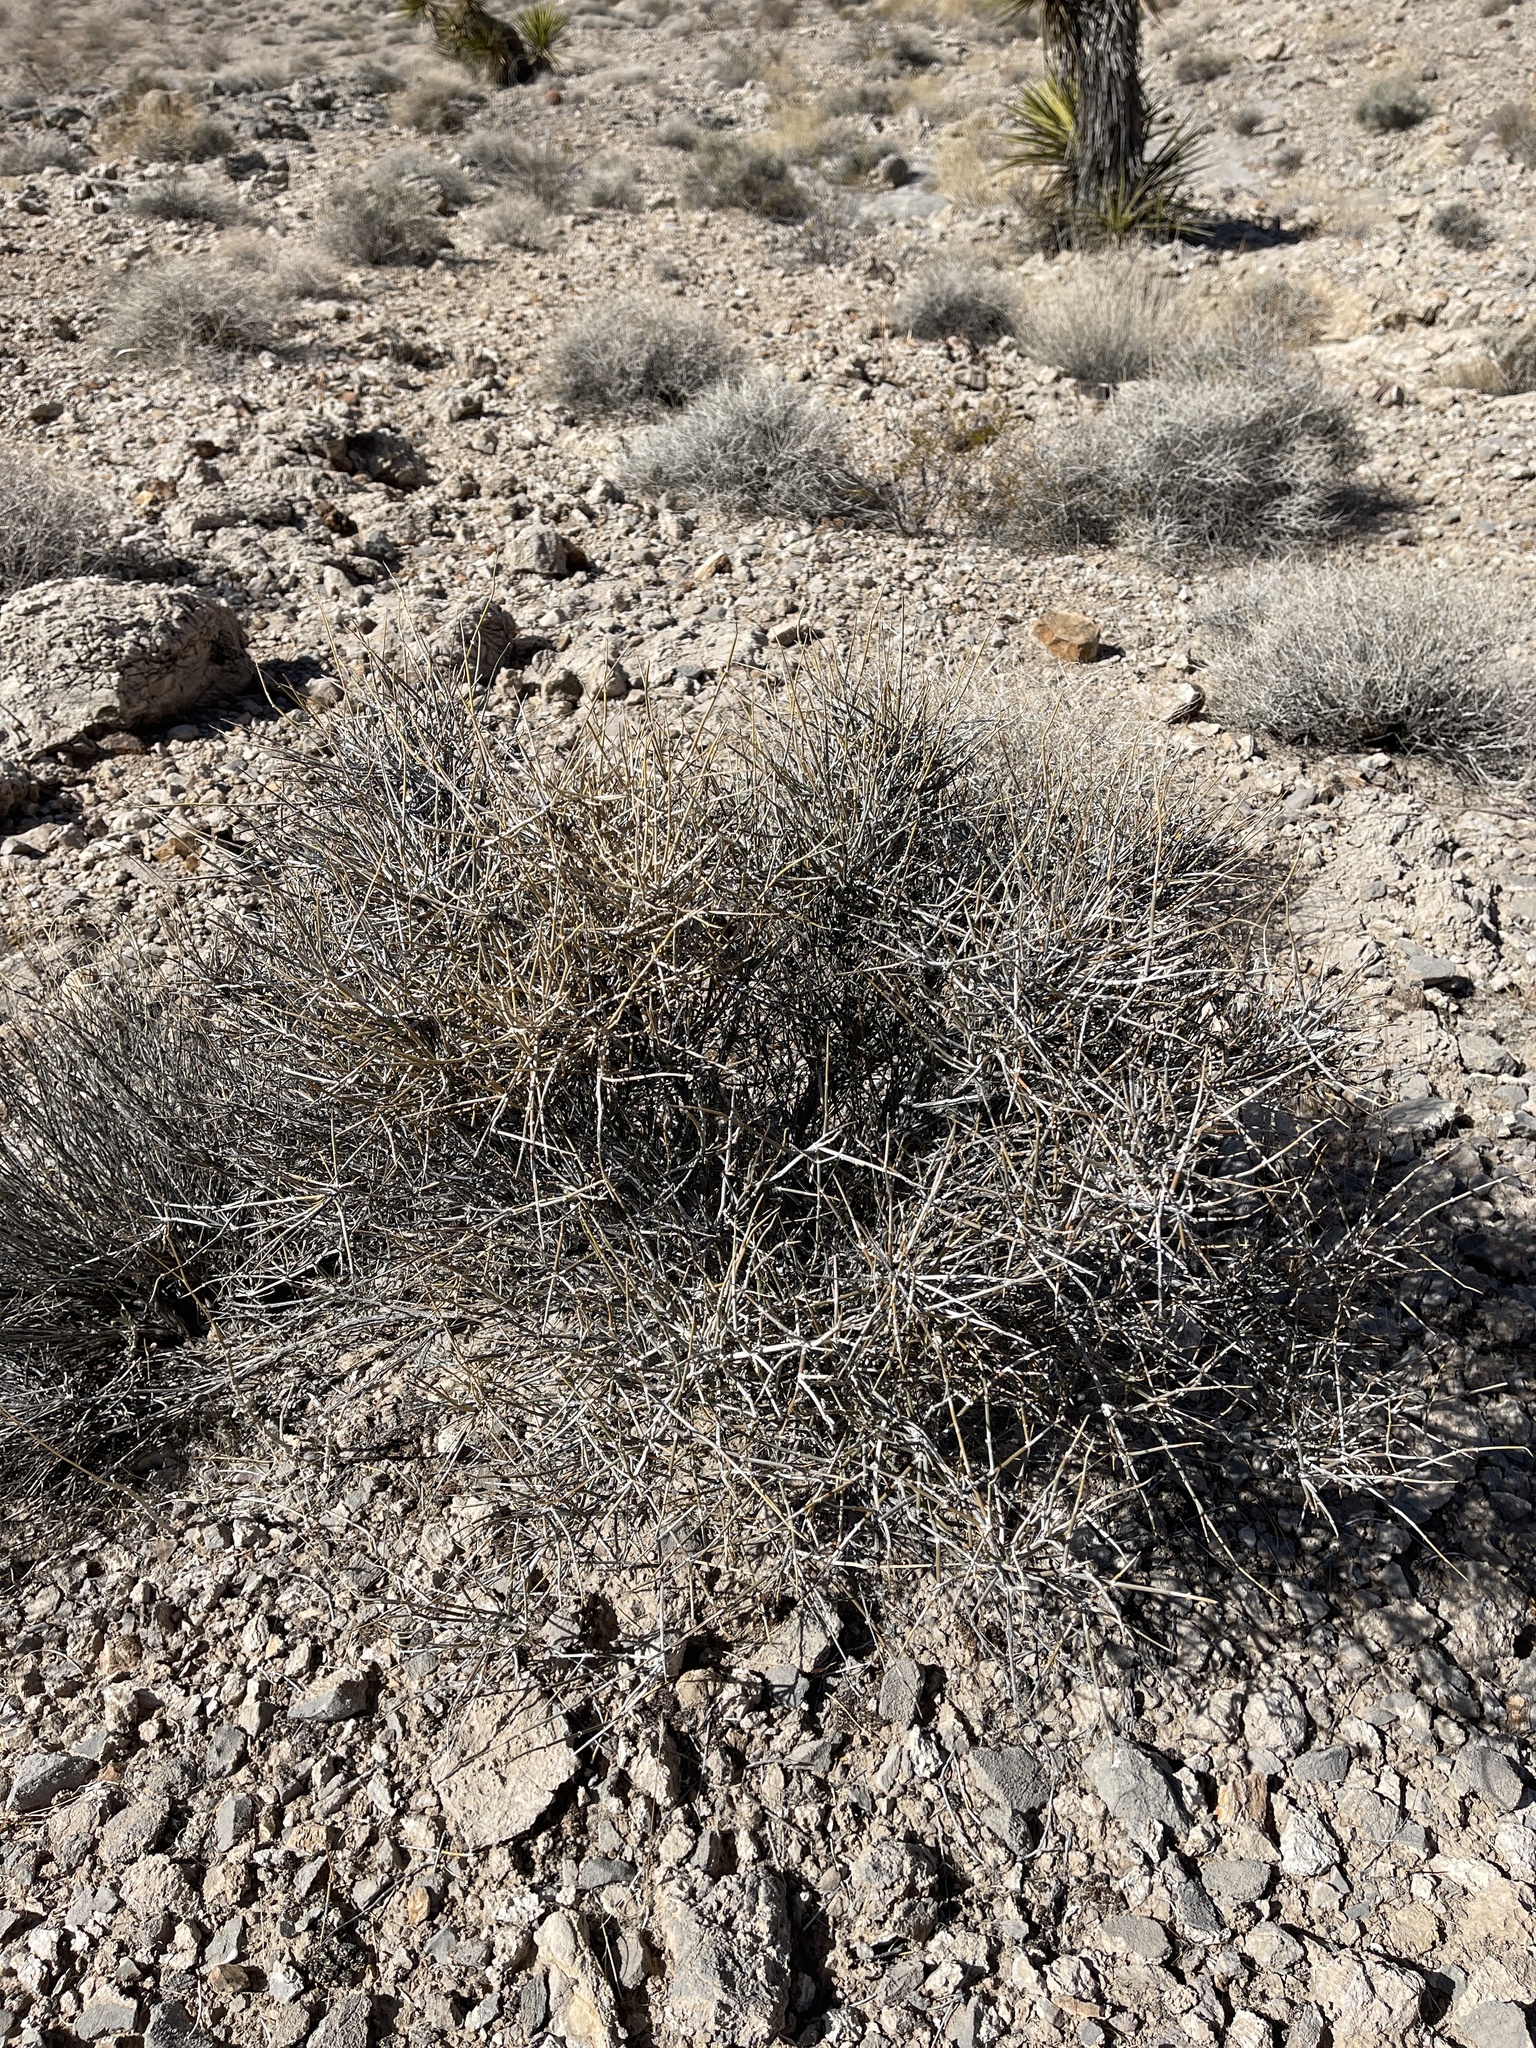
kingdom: Plantae
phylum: Tracheophyta
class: Gnetopsida
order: Ephedrales
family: Ephedraceae
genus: Ephedra
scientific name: Ephedra nevadensis
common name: Gray ephedra
